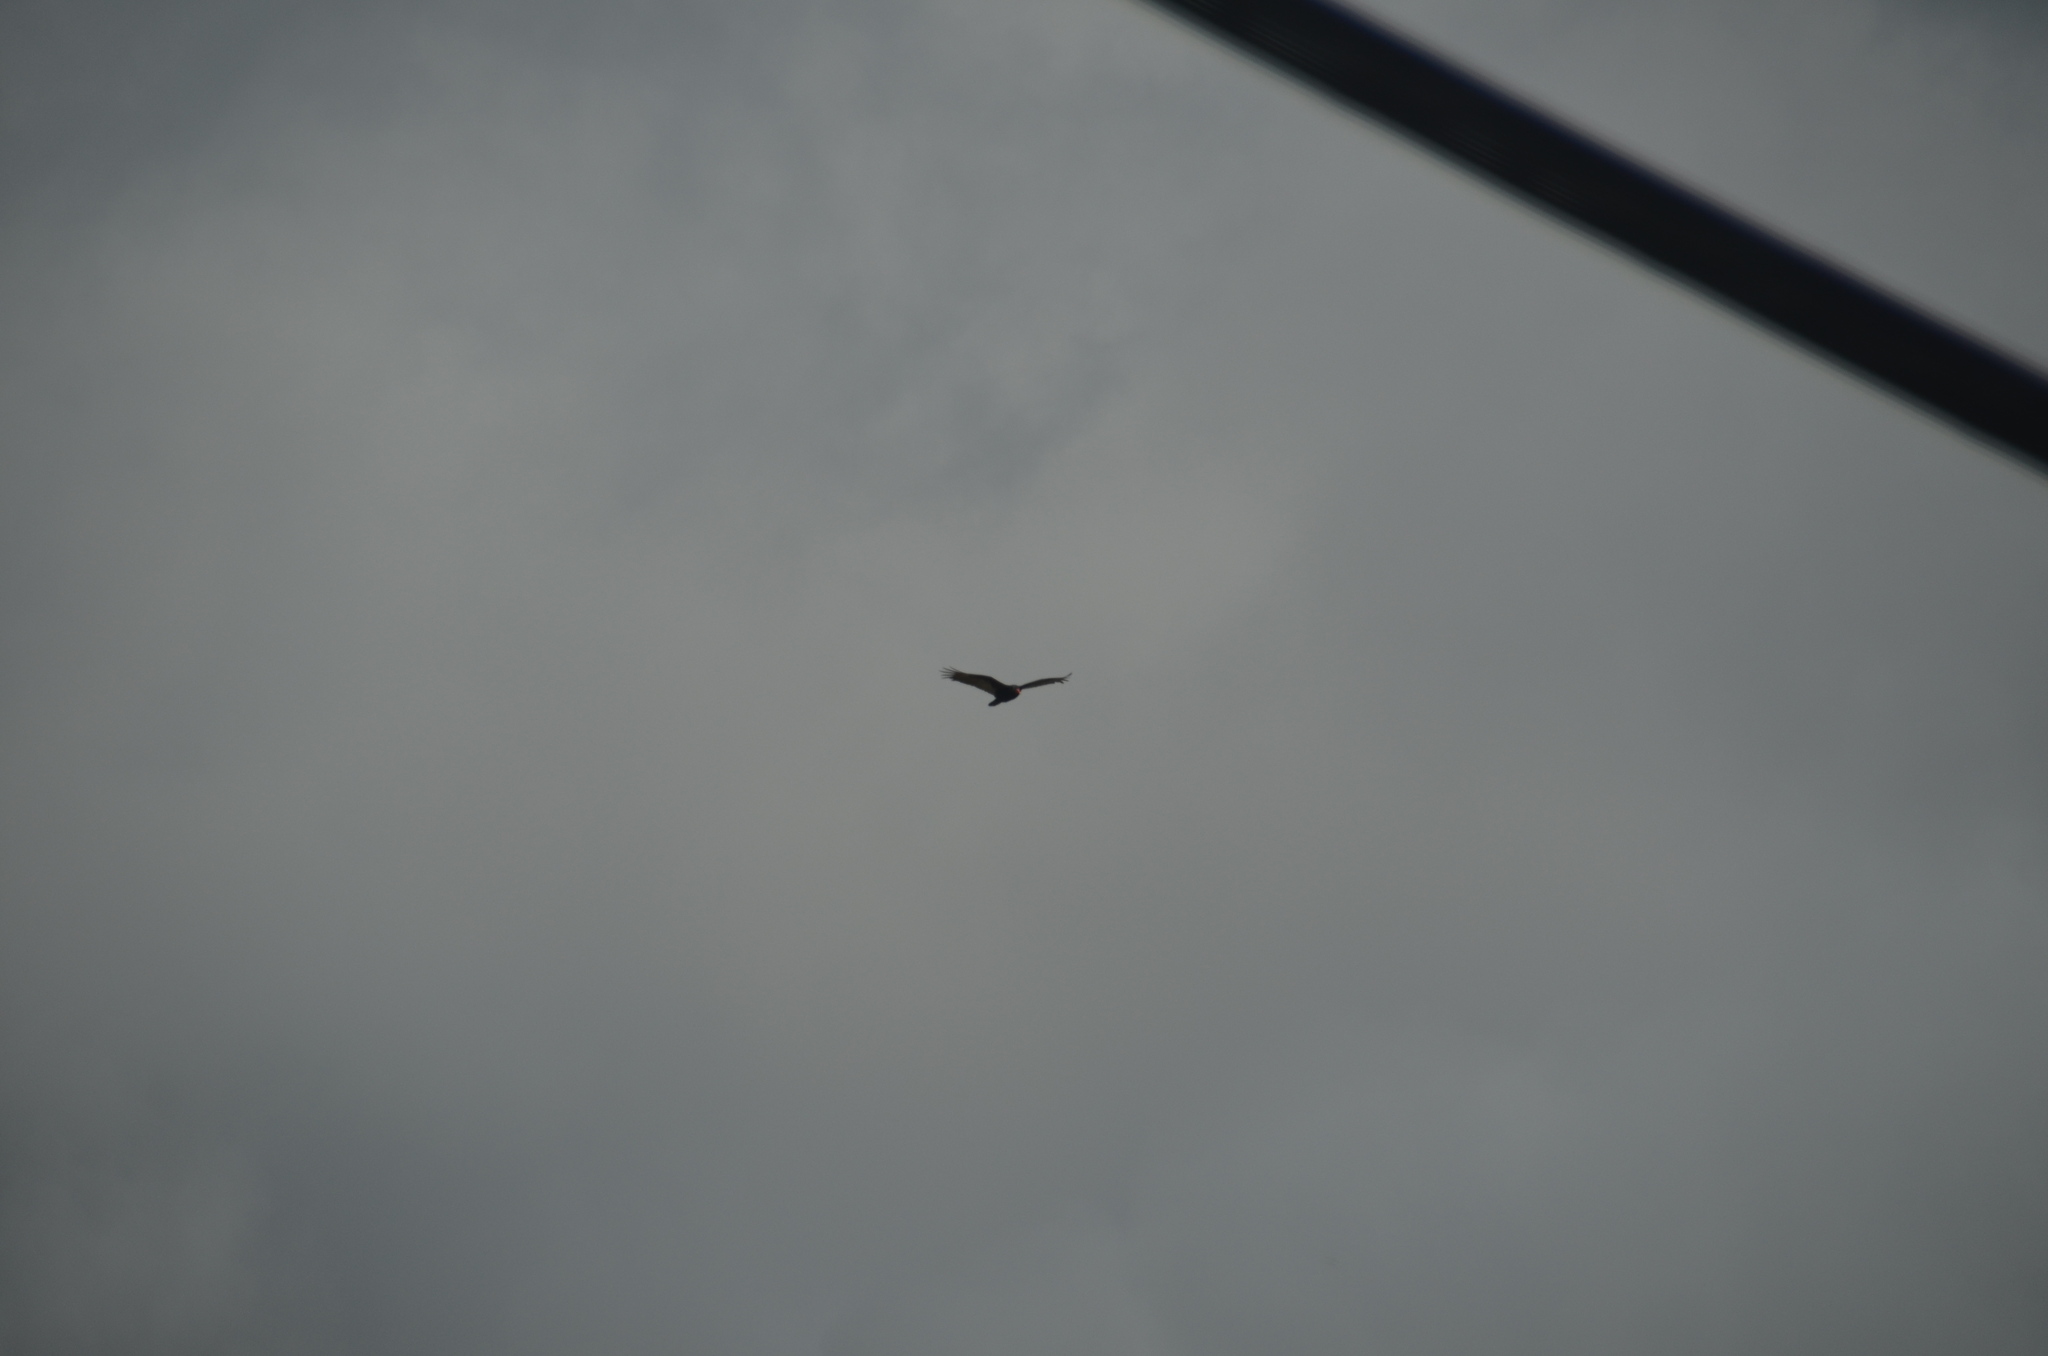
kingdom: Animalia
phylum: Chordata
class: Aves
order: Accipitriformes
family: Cathartidae
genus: Cathartes
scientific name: Cathartes aura
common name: Turkey vulture
